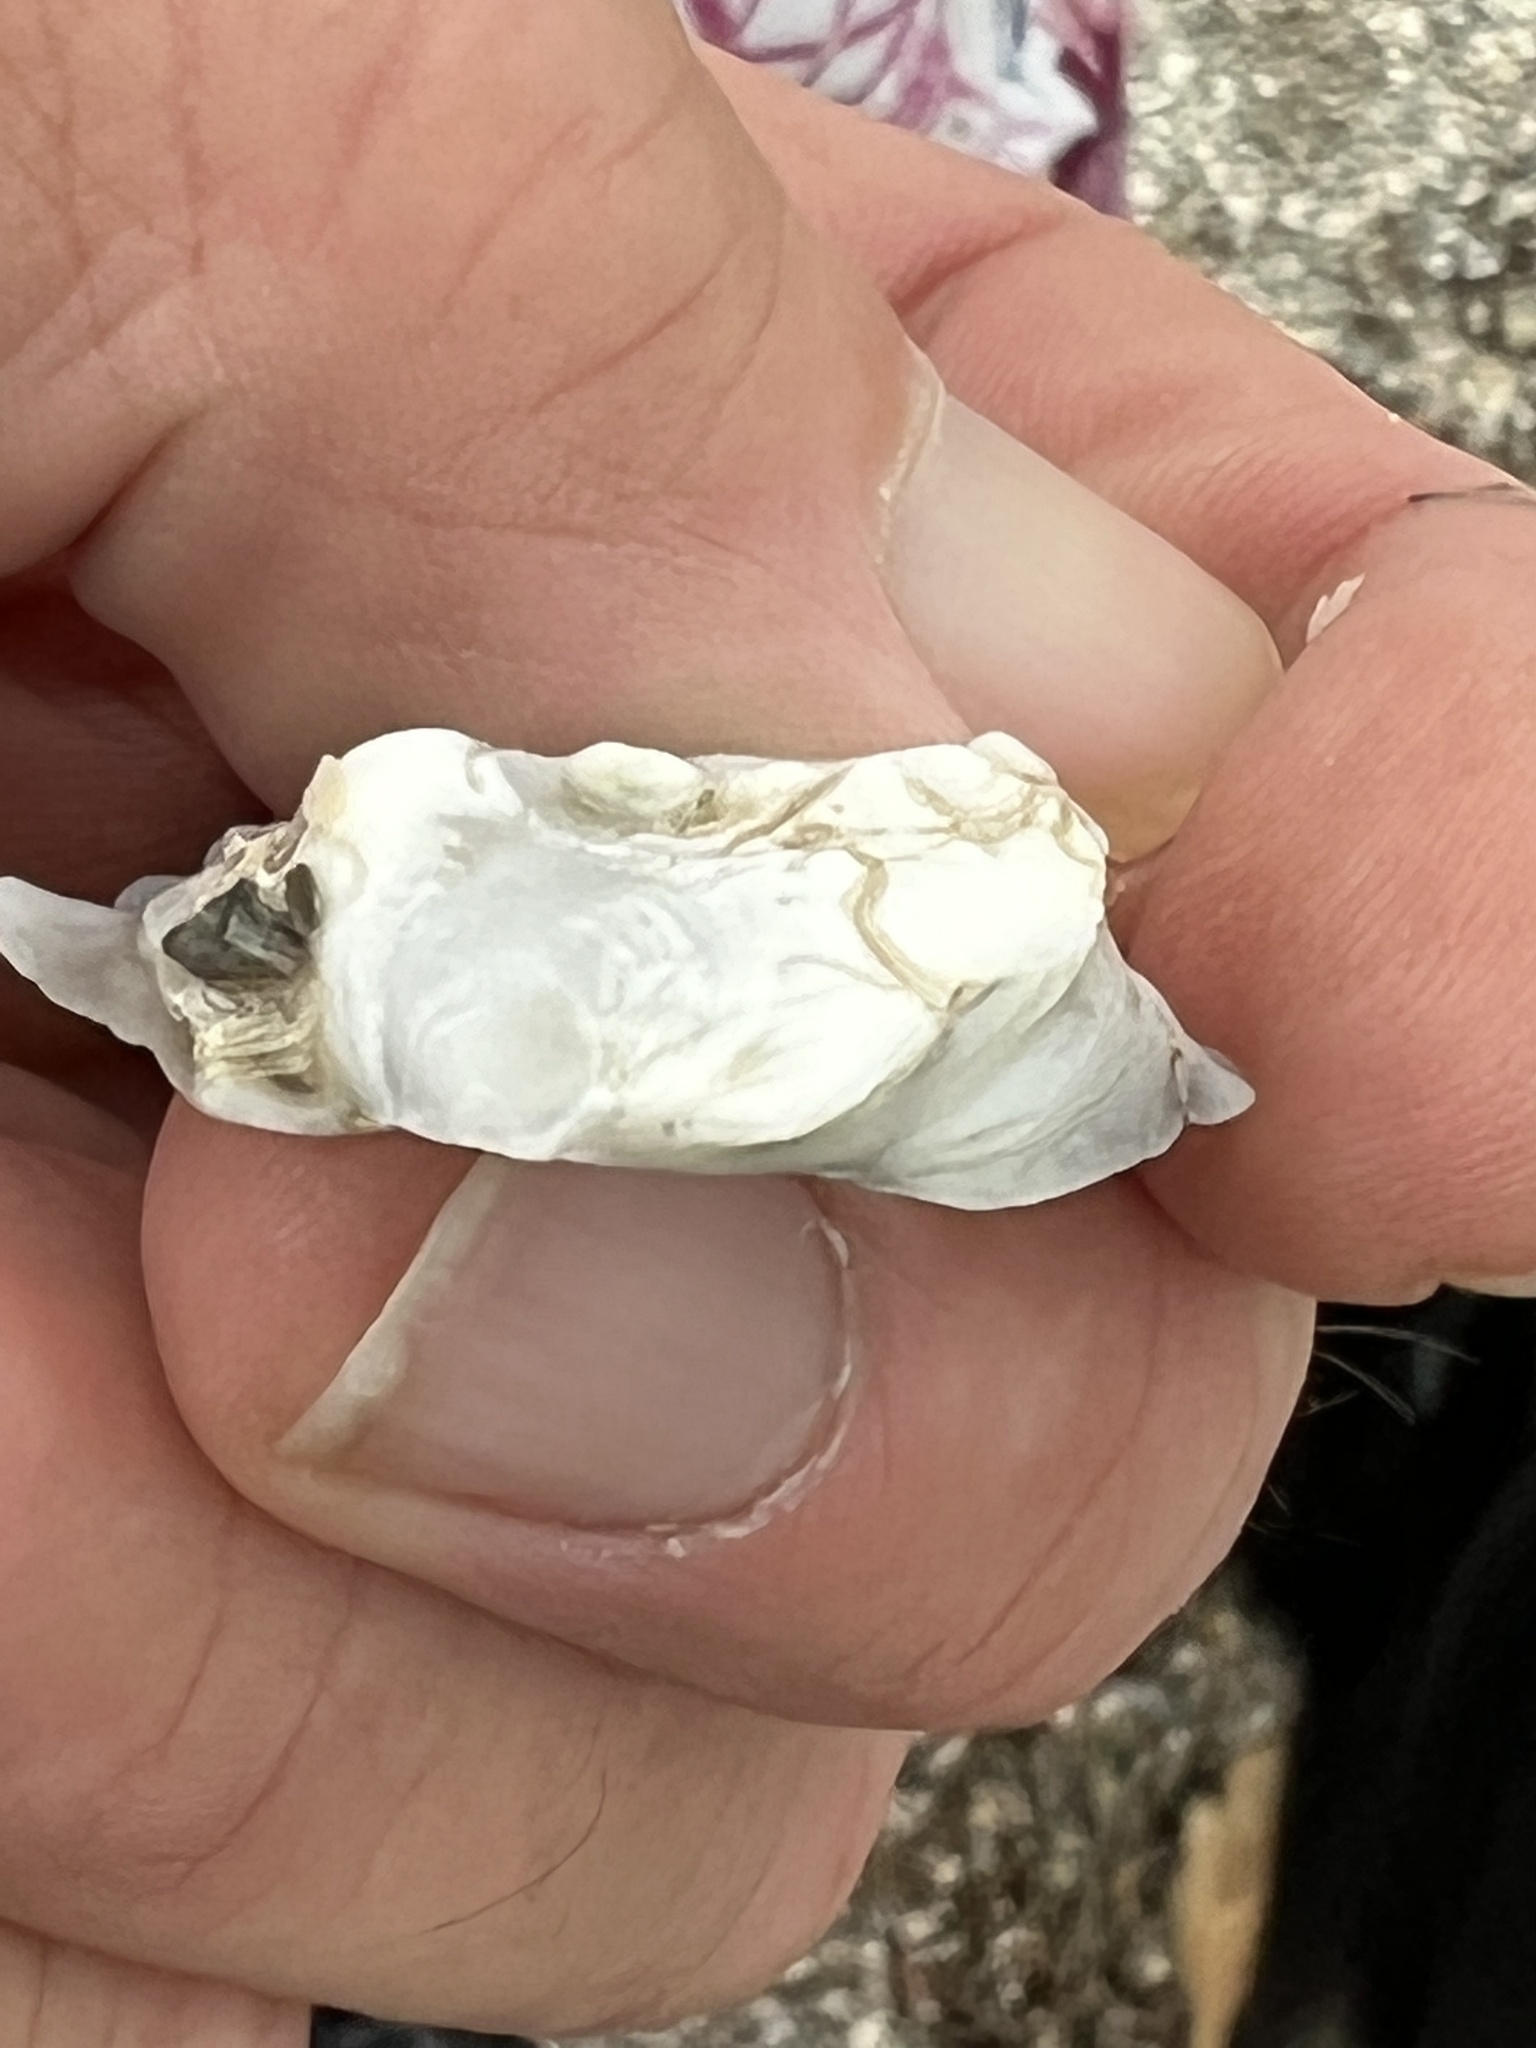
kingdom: Animalia
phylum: Mollusca
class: Bivalvia
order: Venerida
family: Chamidae
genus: Arcinella
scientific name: Arcinella cornuta
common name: Florida spiny jewel box
